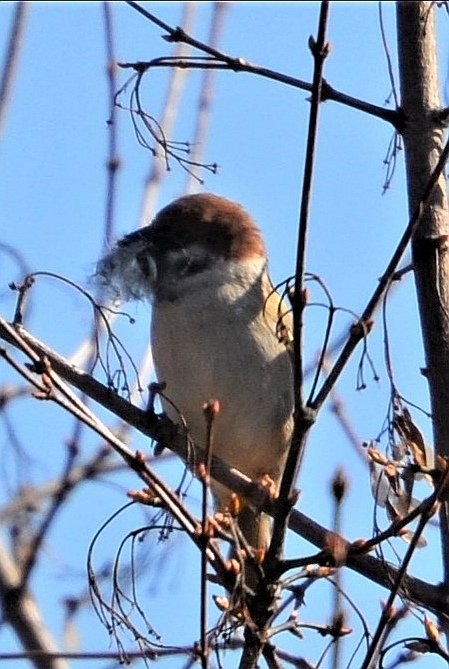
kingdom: Animalia
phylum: Chordata
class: Aves
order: Passeriformes
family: Passeridae
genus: Passer
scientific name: Passer montanus
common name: Eurasian tree sparrow
